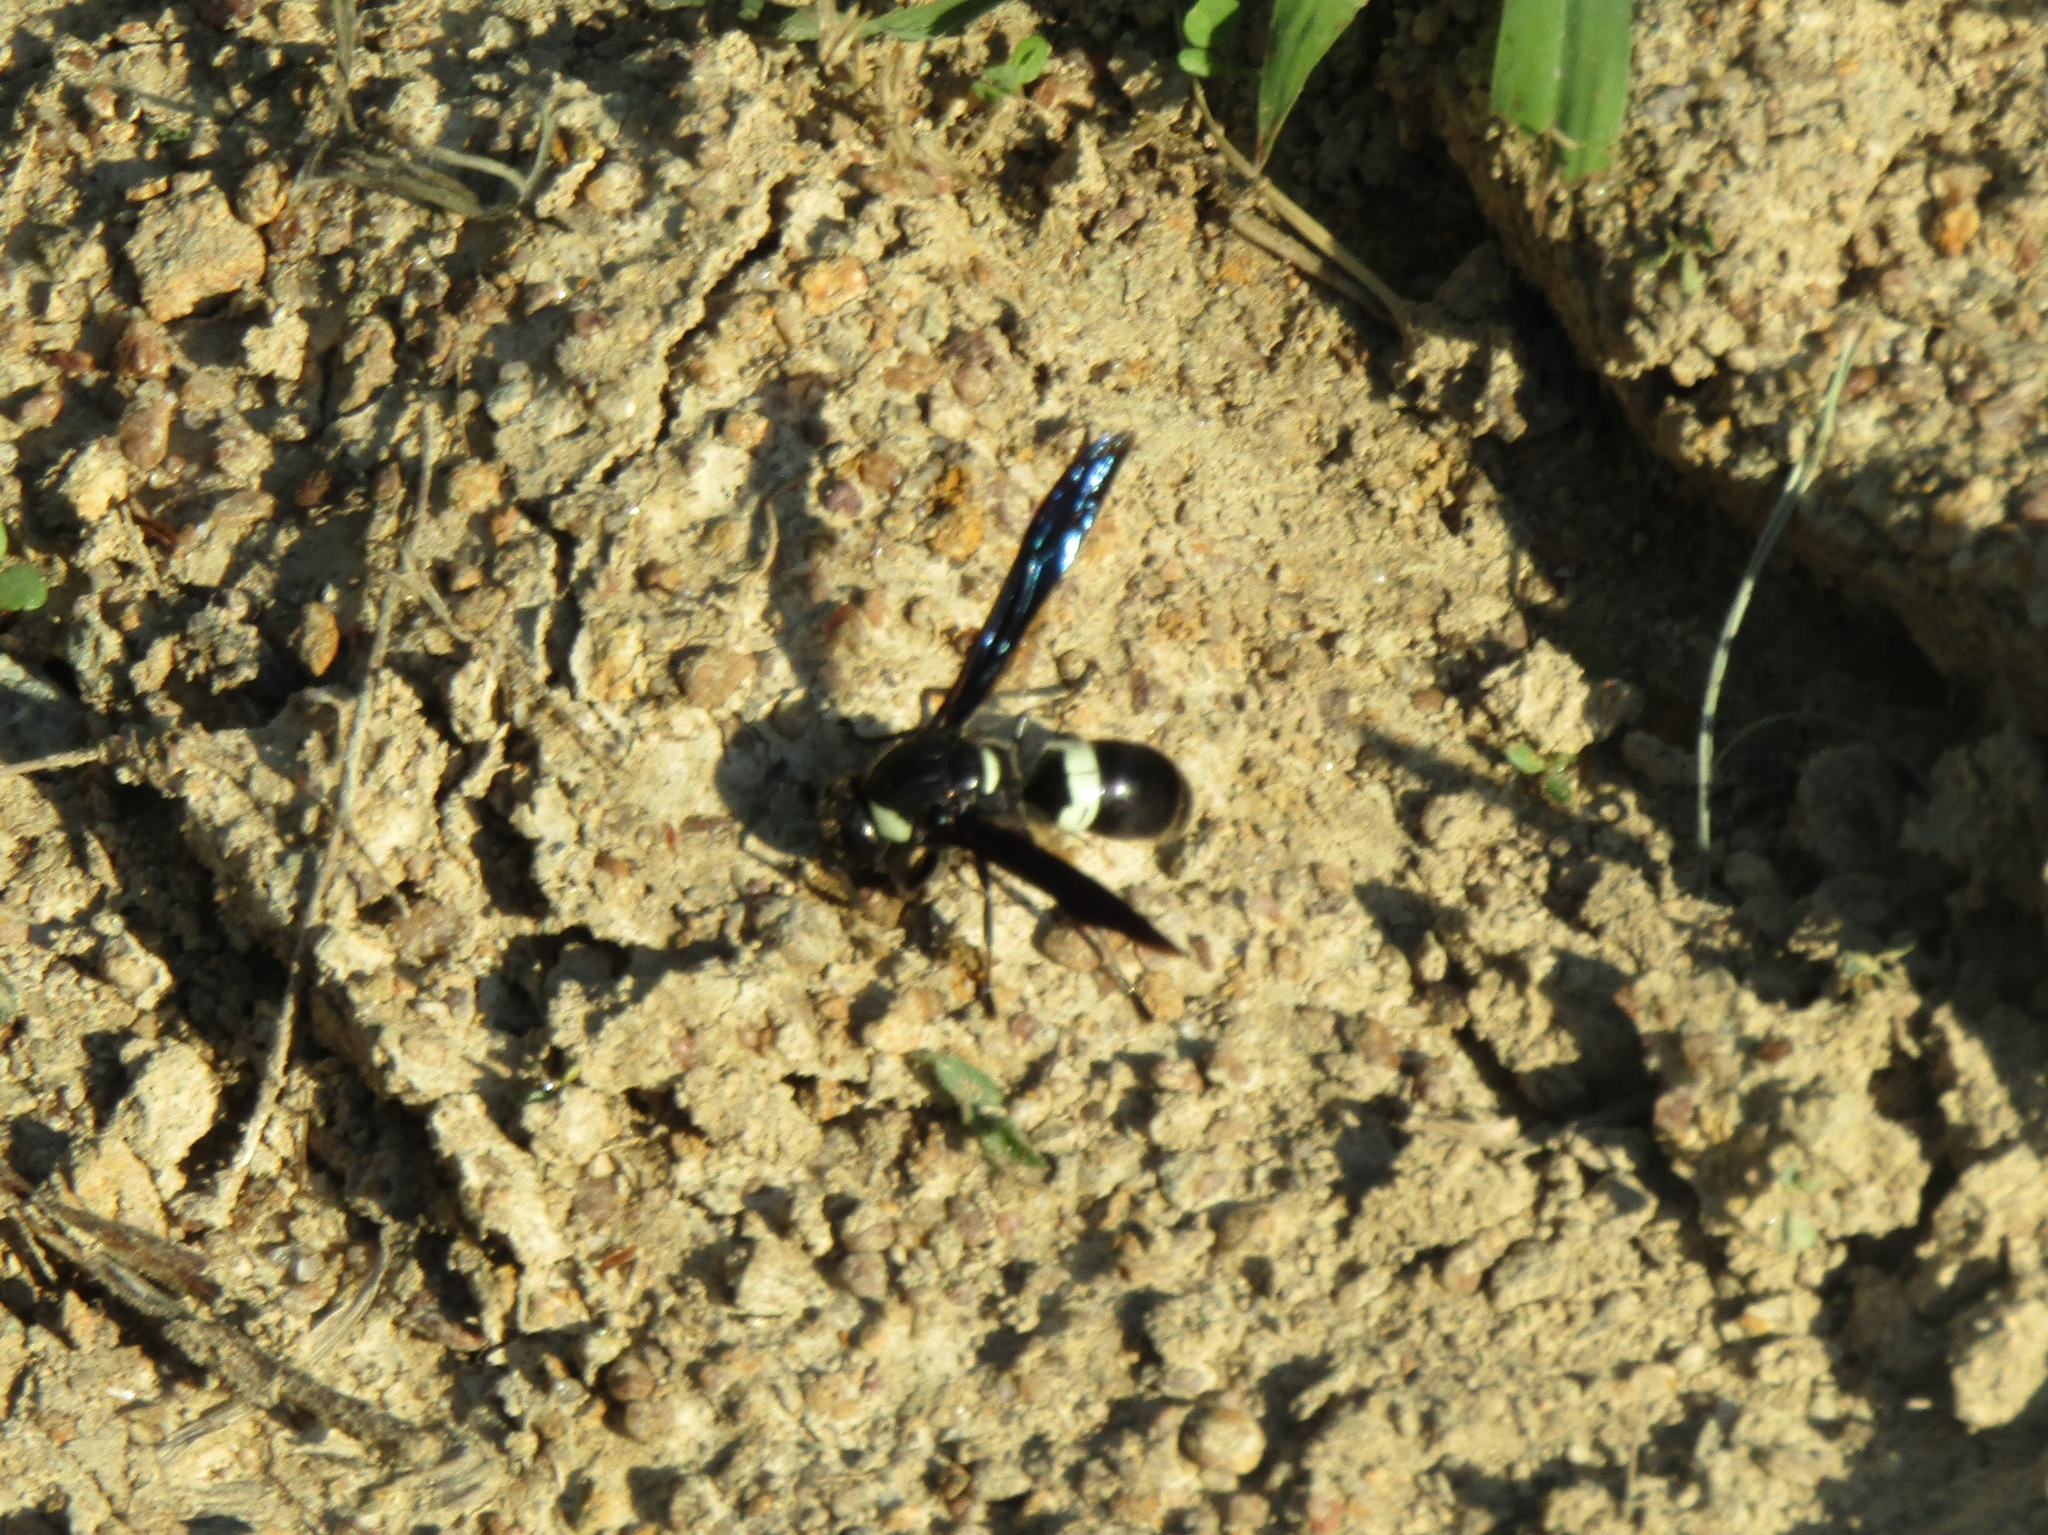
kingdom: Animalia
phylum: Arthropoda
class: Insecta
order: Hymenoptera
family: Eumenidae
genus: Monobia
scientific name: Monobia quadridens
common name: Four-toothed mason wasp
